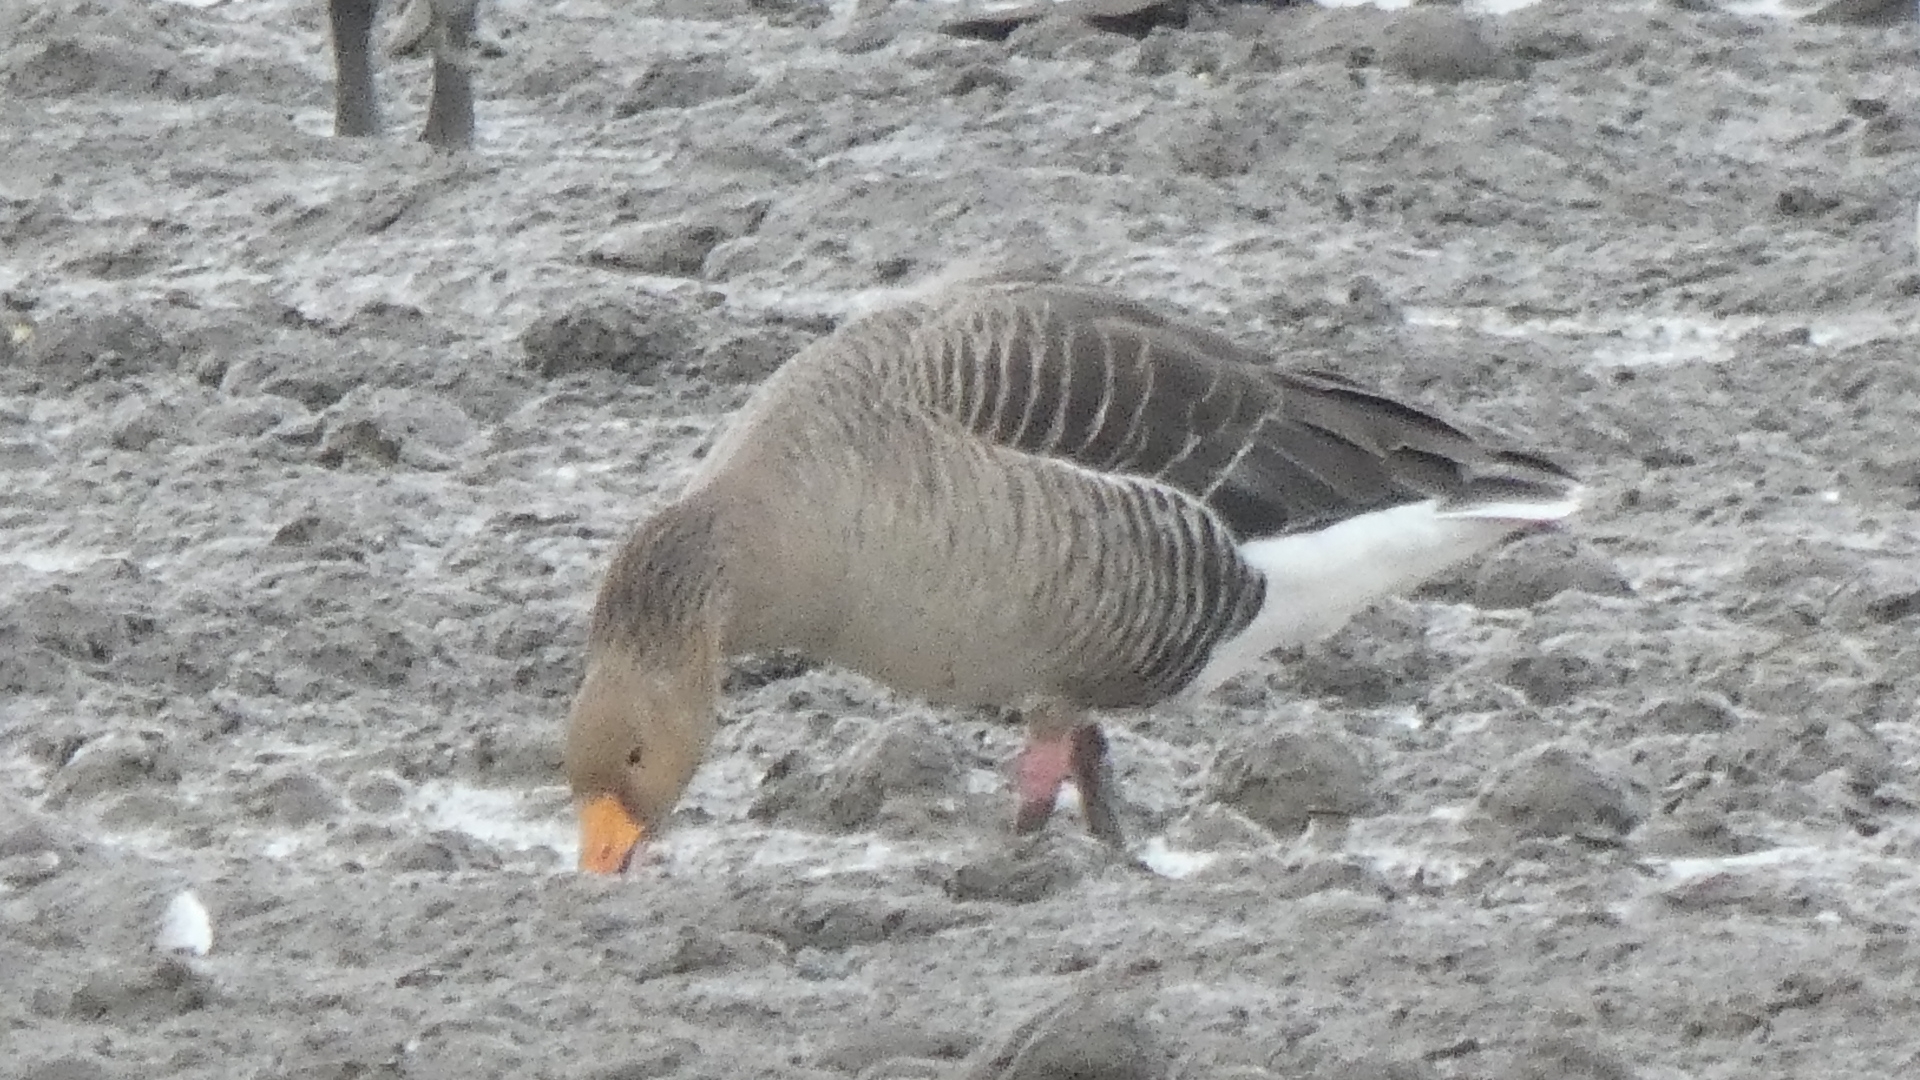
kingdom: Animalia
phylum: Chordata
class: Aves
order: Anseriformes
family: Anatidae
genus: Anser
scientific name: Anser anser
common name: Greylag goose
